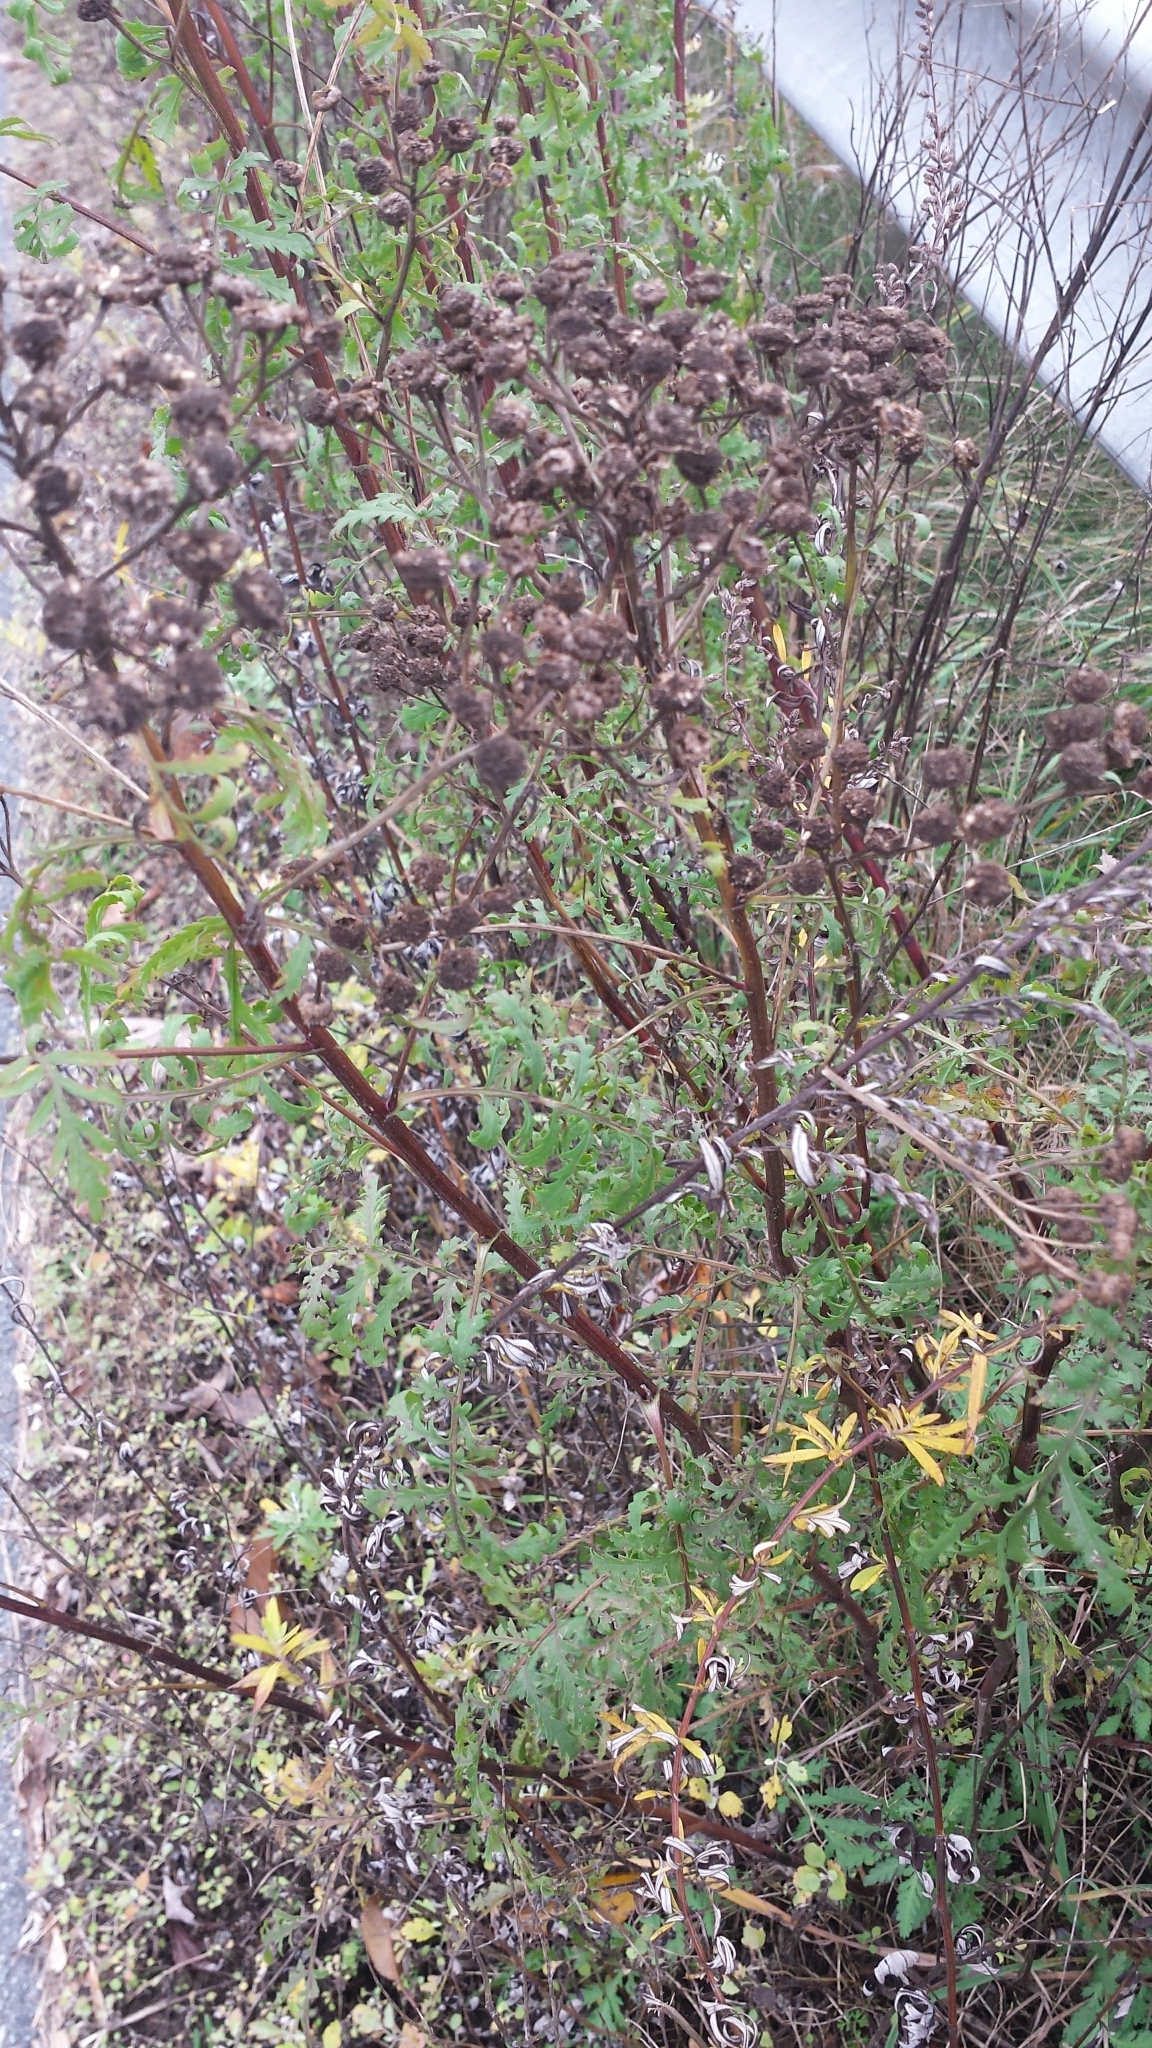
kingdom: Plantae
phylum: Tracheophyta
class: Magnoliopsida
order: Asterales
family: Asteraceae
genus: Tanacetum
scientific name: Tanacetum vulgare
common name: Common tansy
